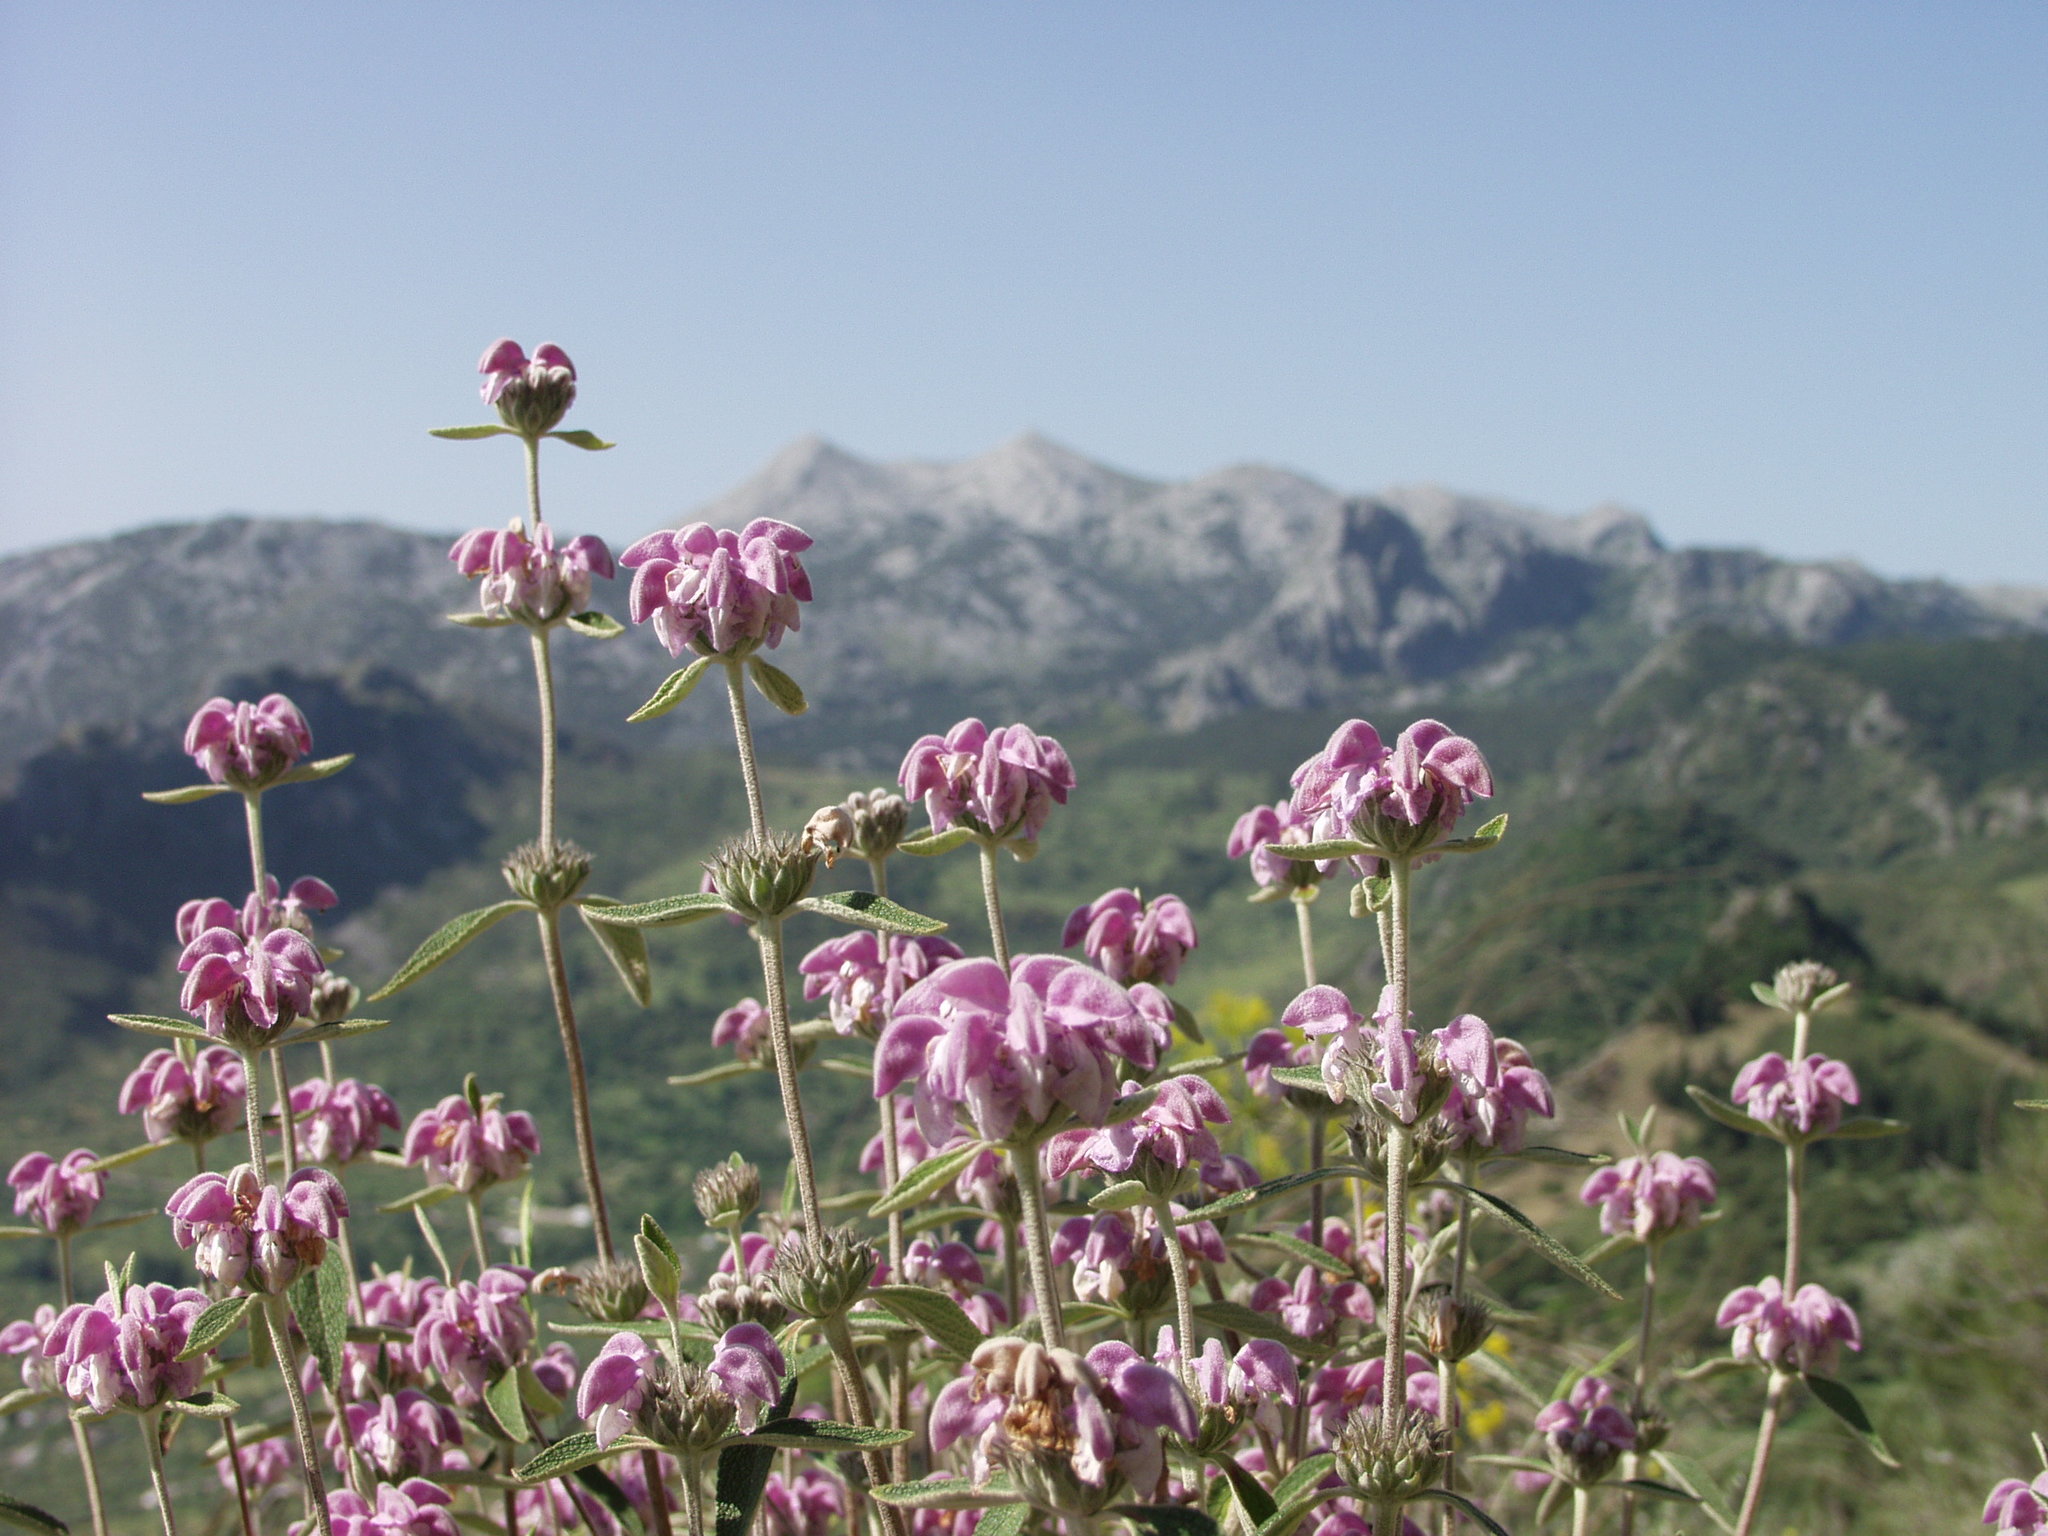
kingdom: Plantae
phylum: Tracheophyta
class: Magnoliopsida
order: Lamiales
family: Lamiaceae
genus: Phlomis
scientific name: Phlomis purpurea
